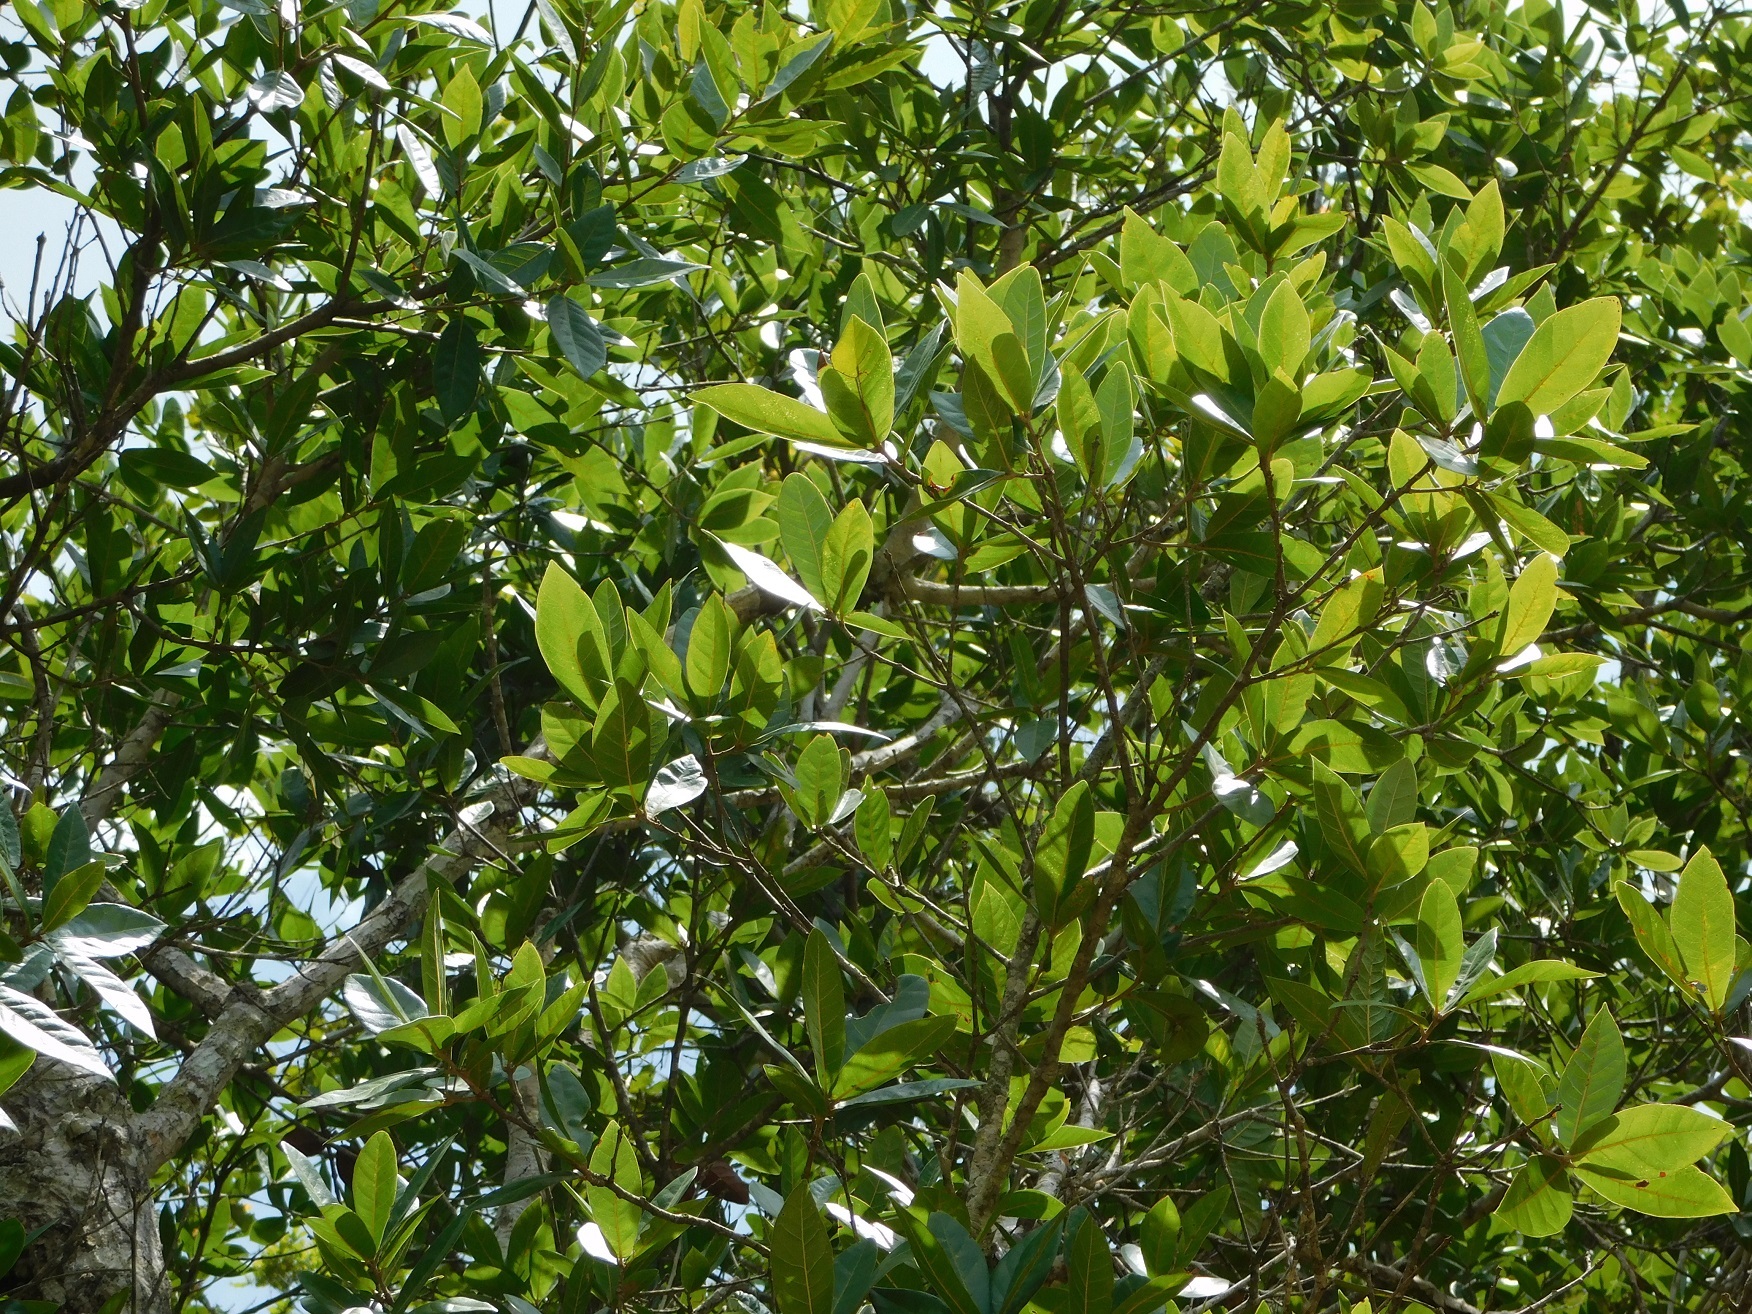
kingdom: Plantae
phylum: Tracheophyta
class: Magnoliopsida
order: Fagales
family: Fagaceae
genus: Quercus
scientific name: Quercus sapotifolia
